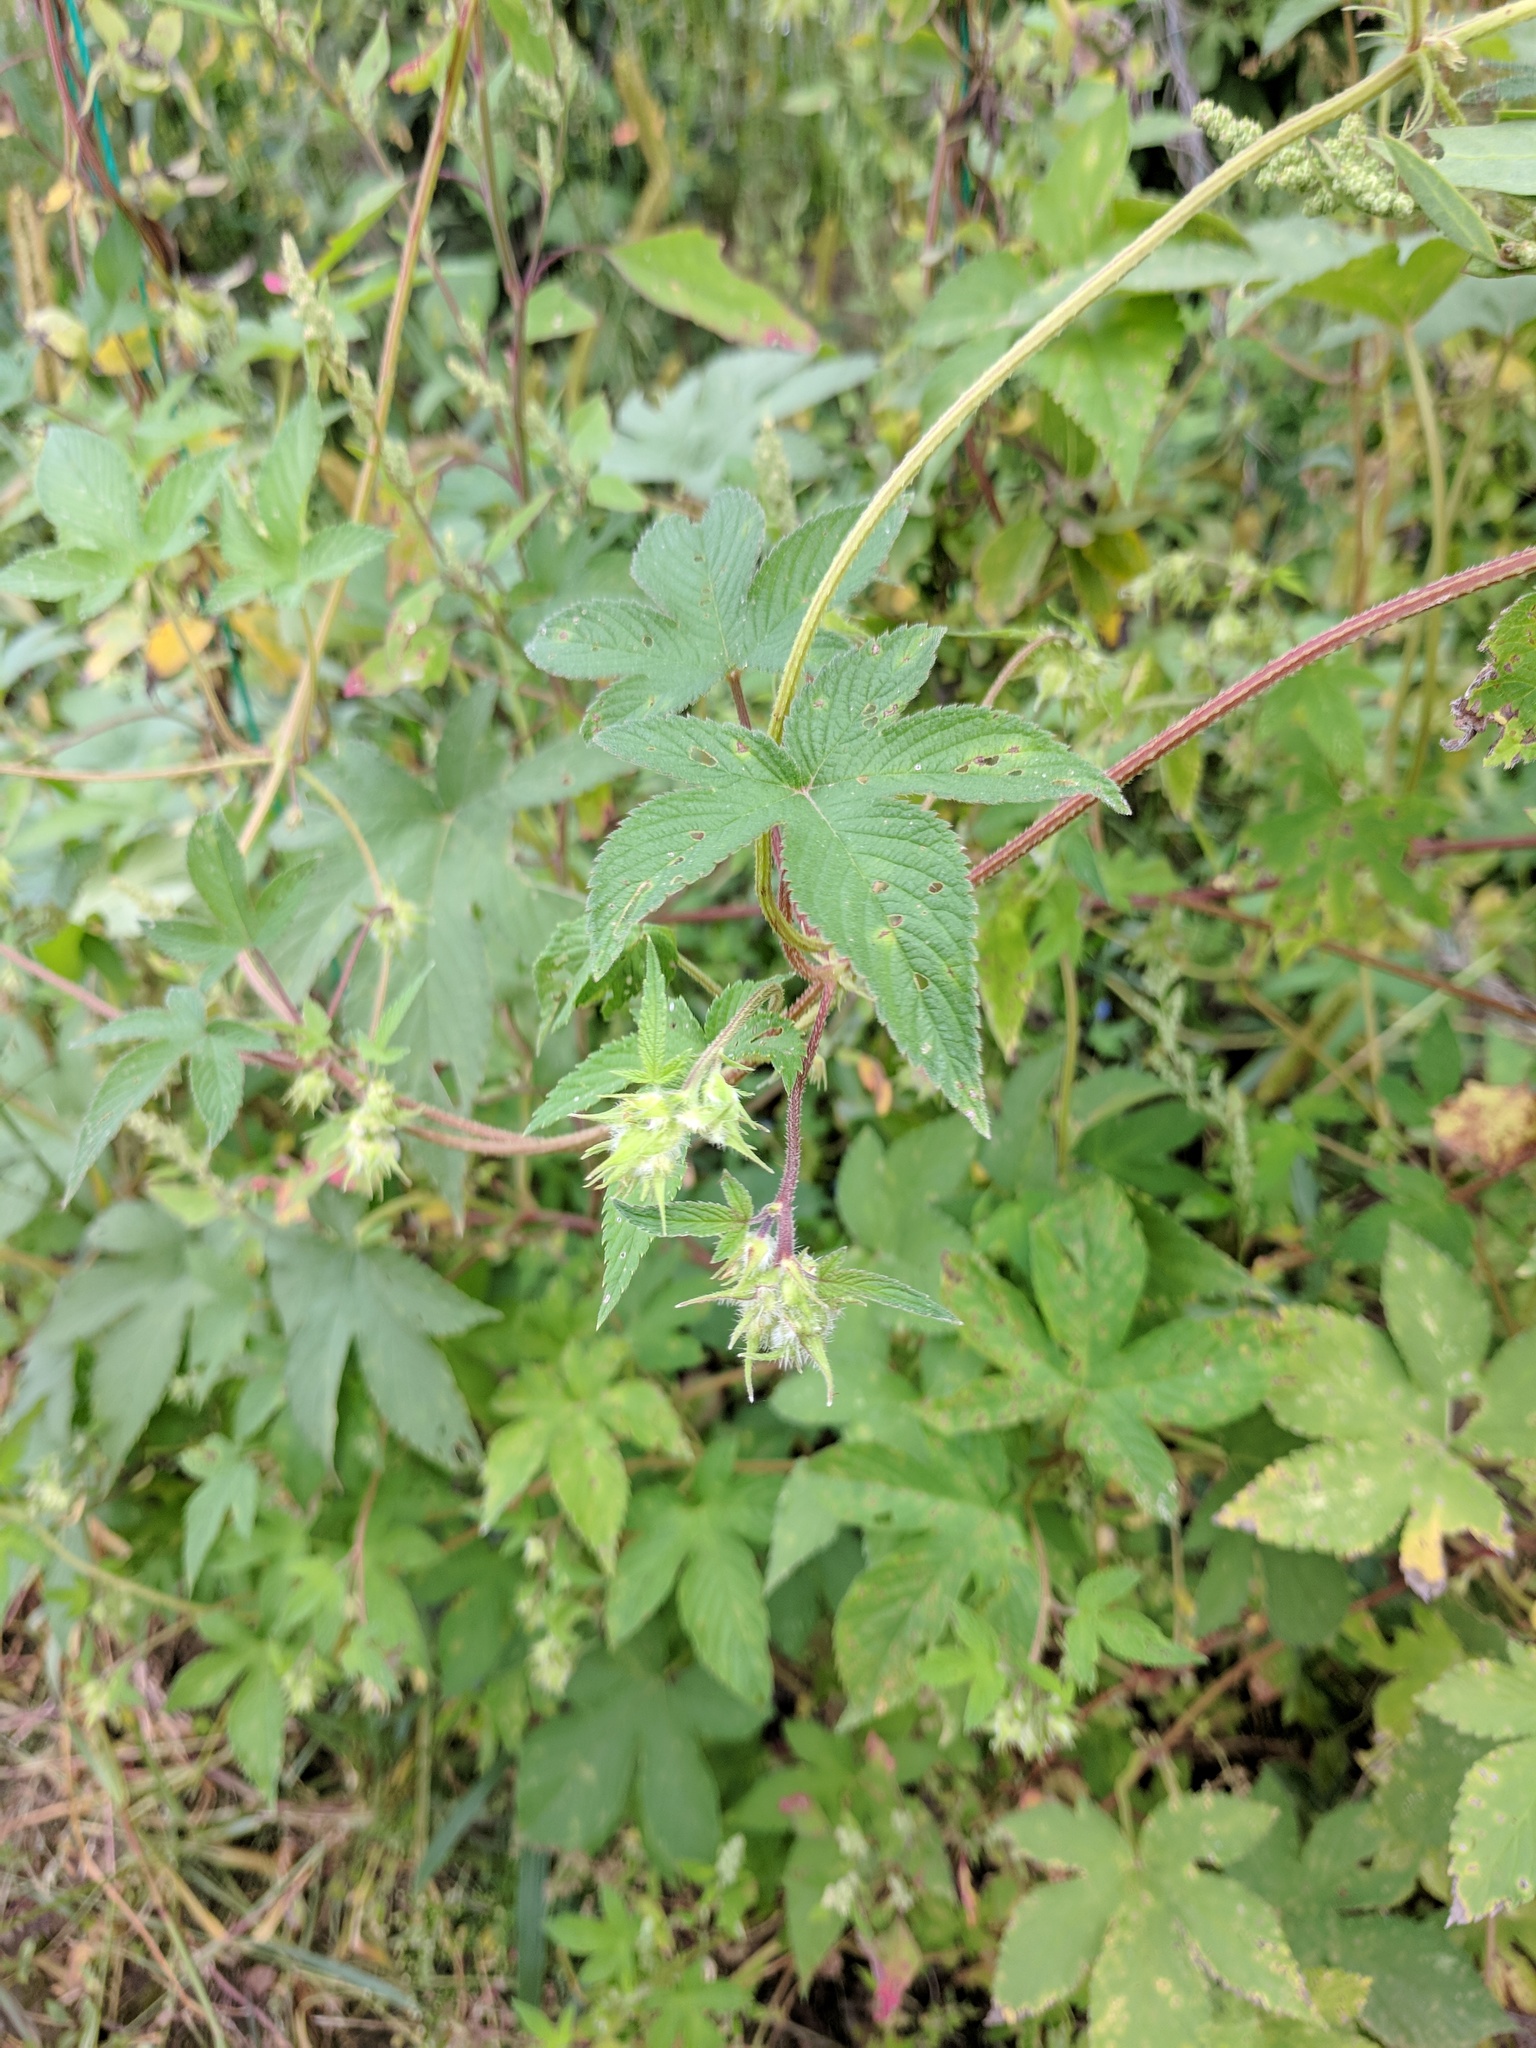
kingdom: Plantae
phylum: Tracheophyta
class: Magnoliopsida
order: Rosales
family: Cannabaceae
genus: Humulus
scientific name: Humulus scandens
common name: Japanese hop
